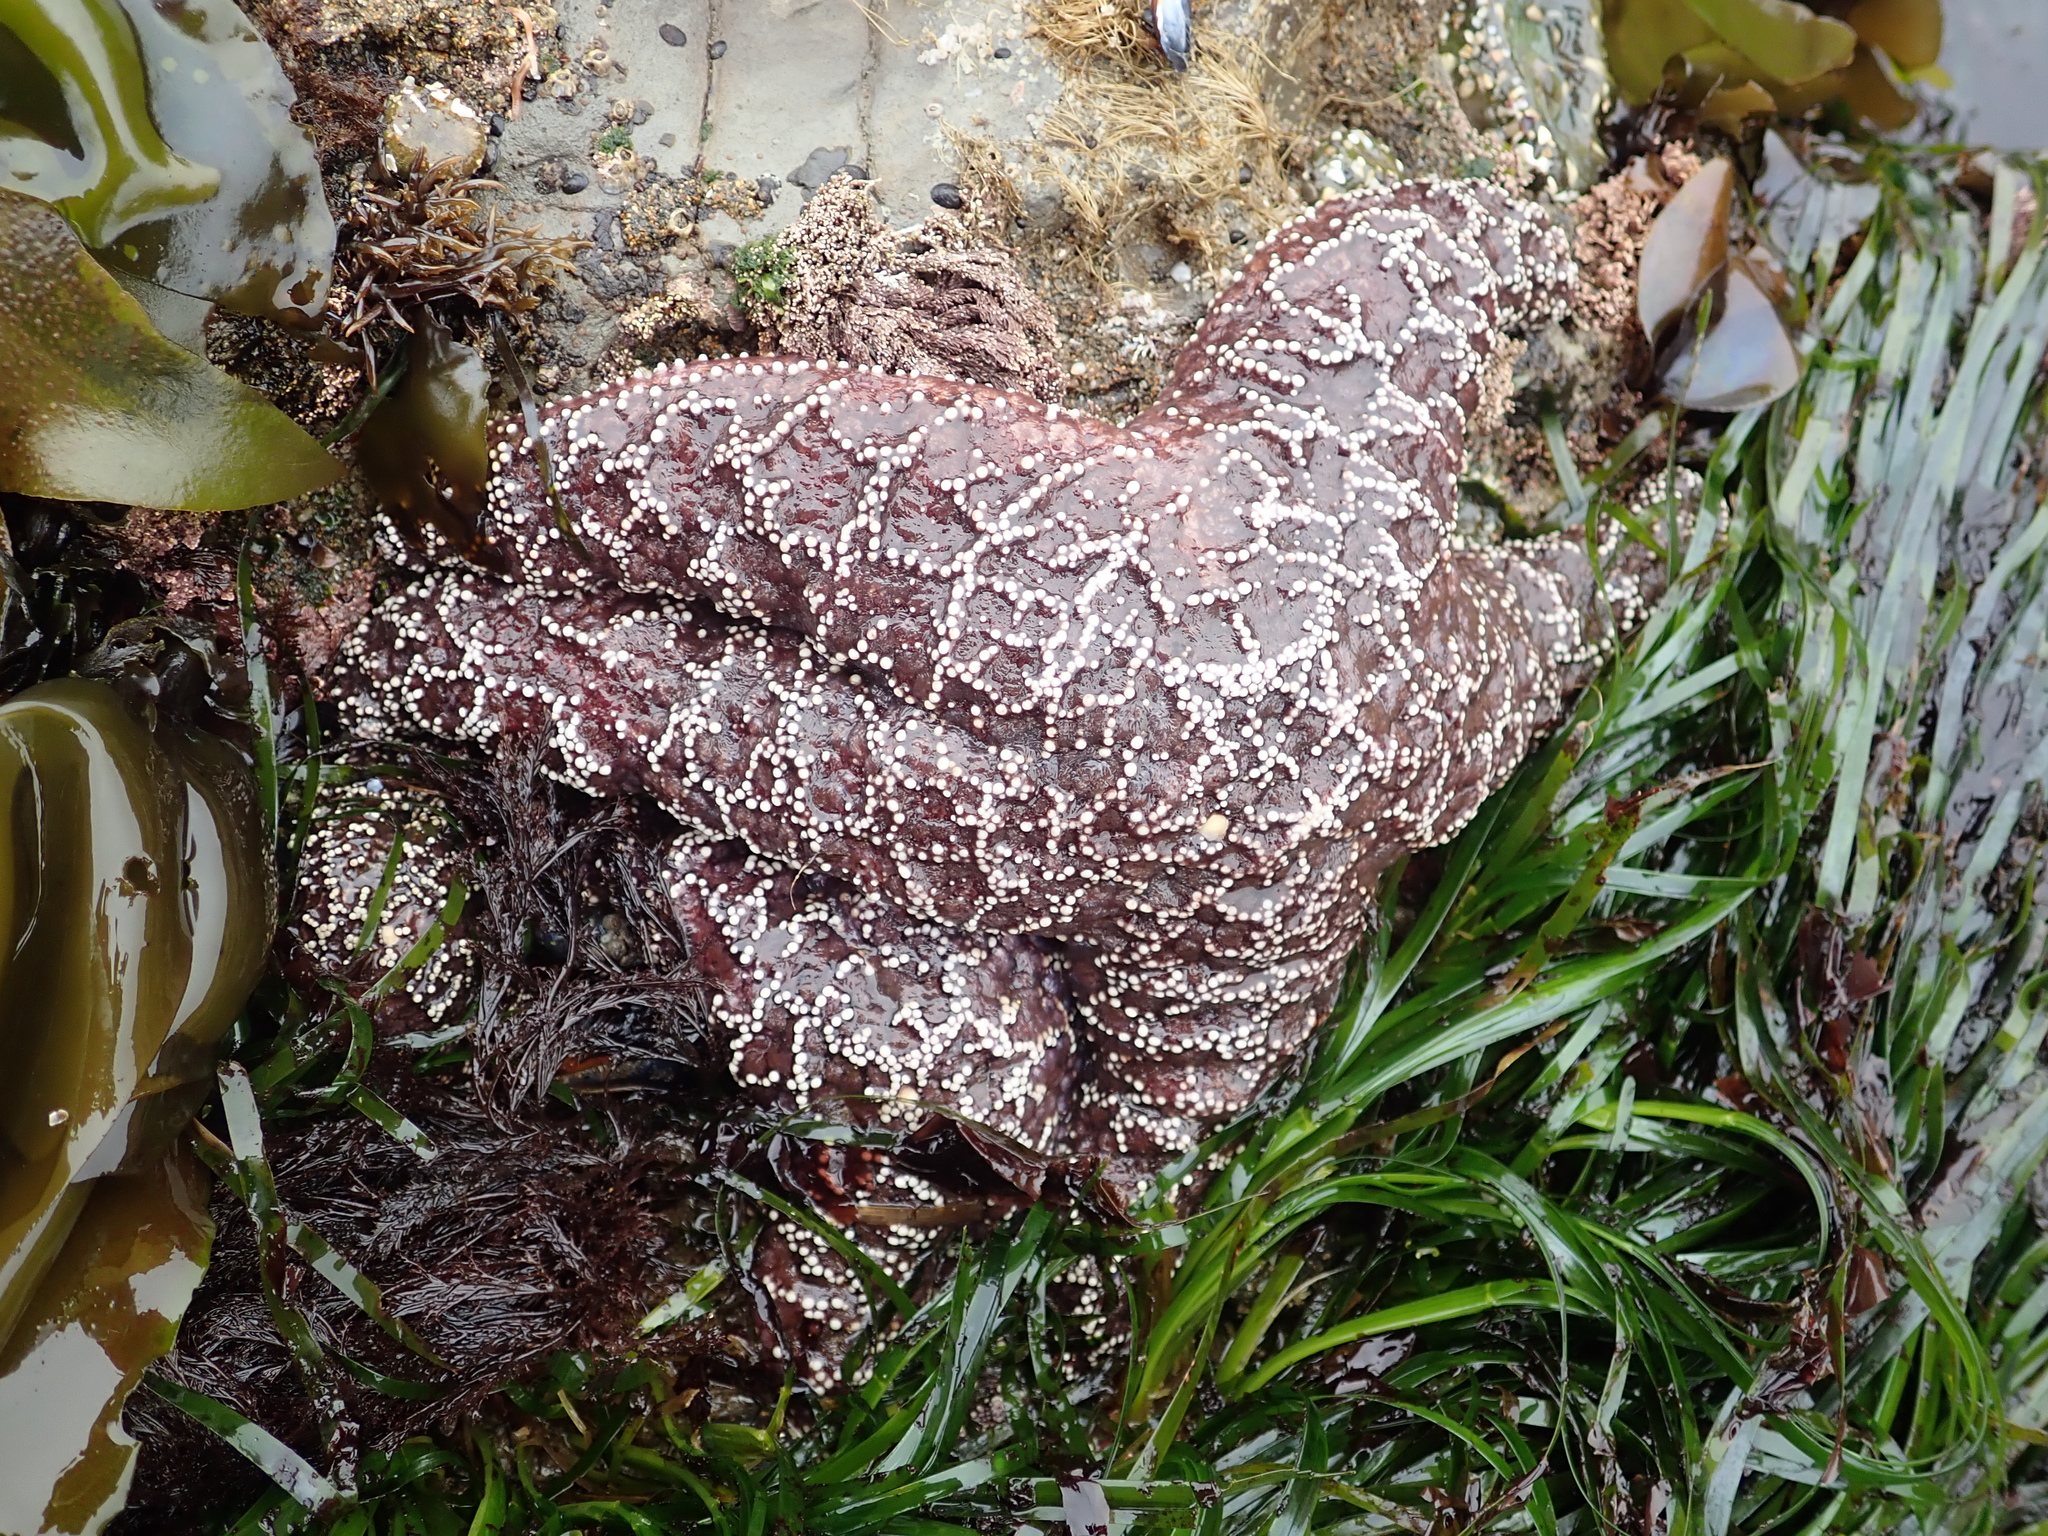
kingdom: Animalia
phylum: Echinodermata
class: Asteroidea
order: Forcipulatida
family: Asteriidae
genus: Pisaster
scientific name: Pisaster ochraceus
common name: Ochre stars
